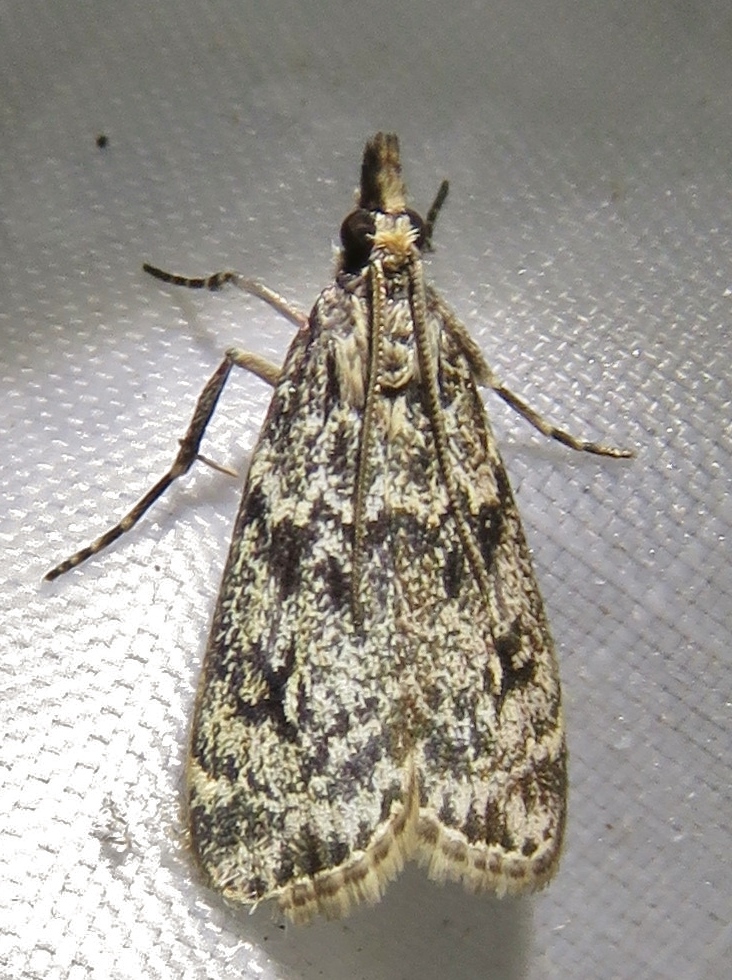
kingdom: Animalia
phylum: Arthropoda
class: Insecta
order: Lepidoptera
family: Crambidae
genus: Eudonia
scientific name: Eudonia truncicolella
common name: Ground-moss grey
